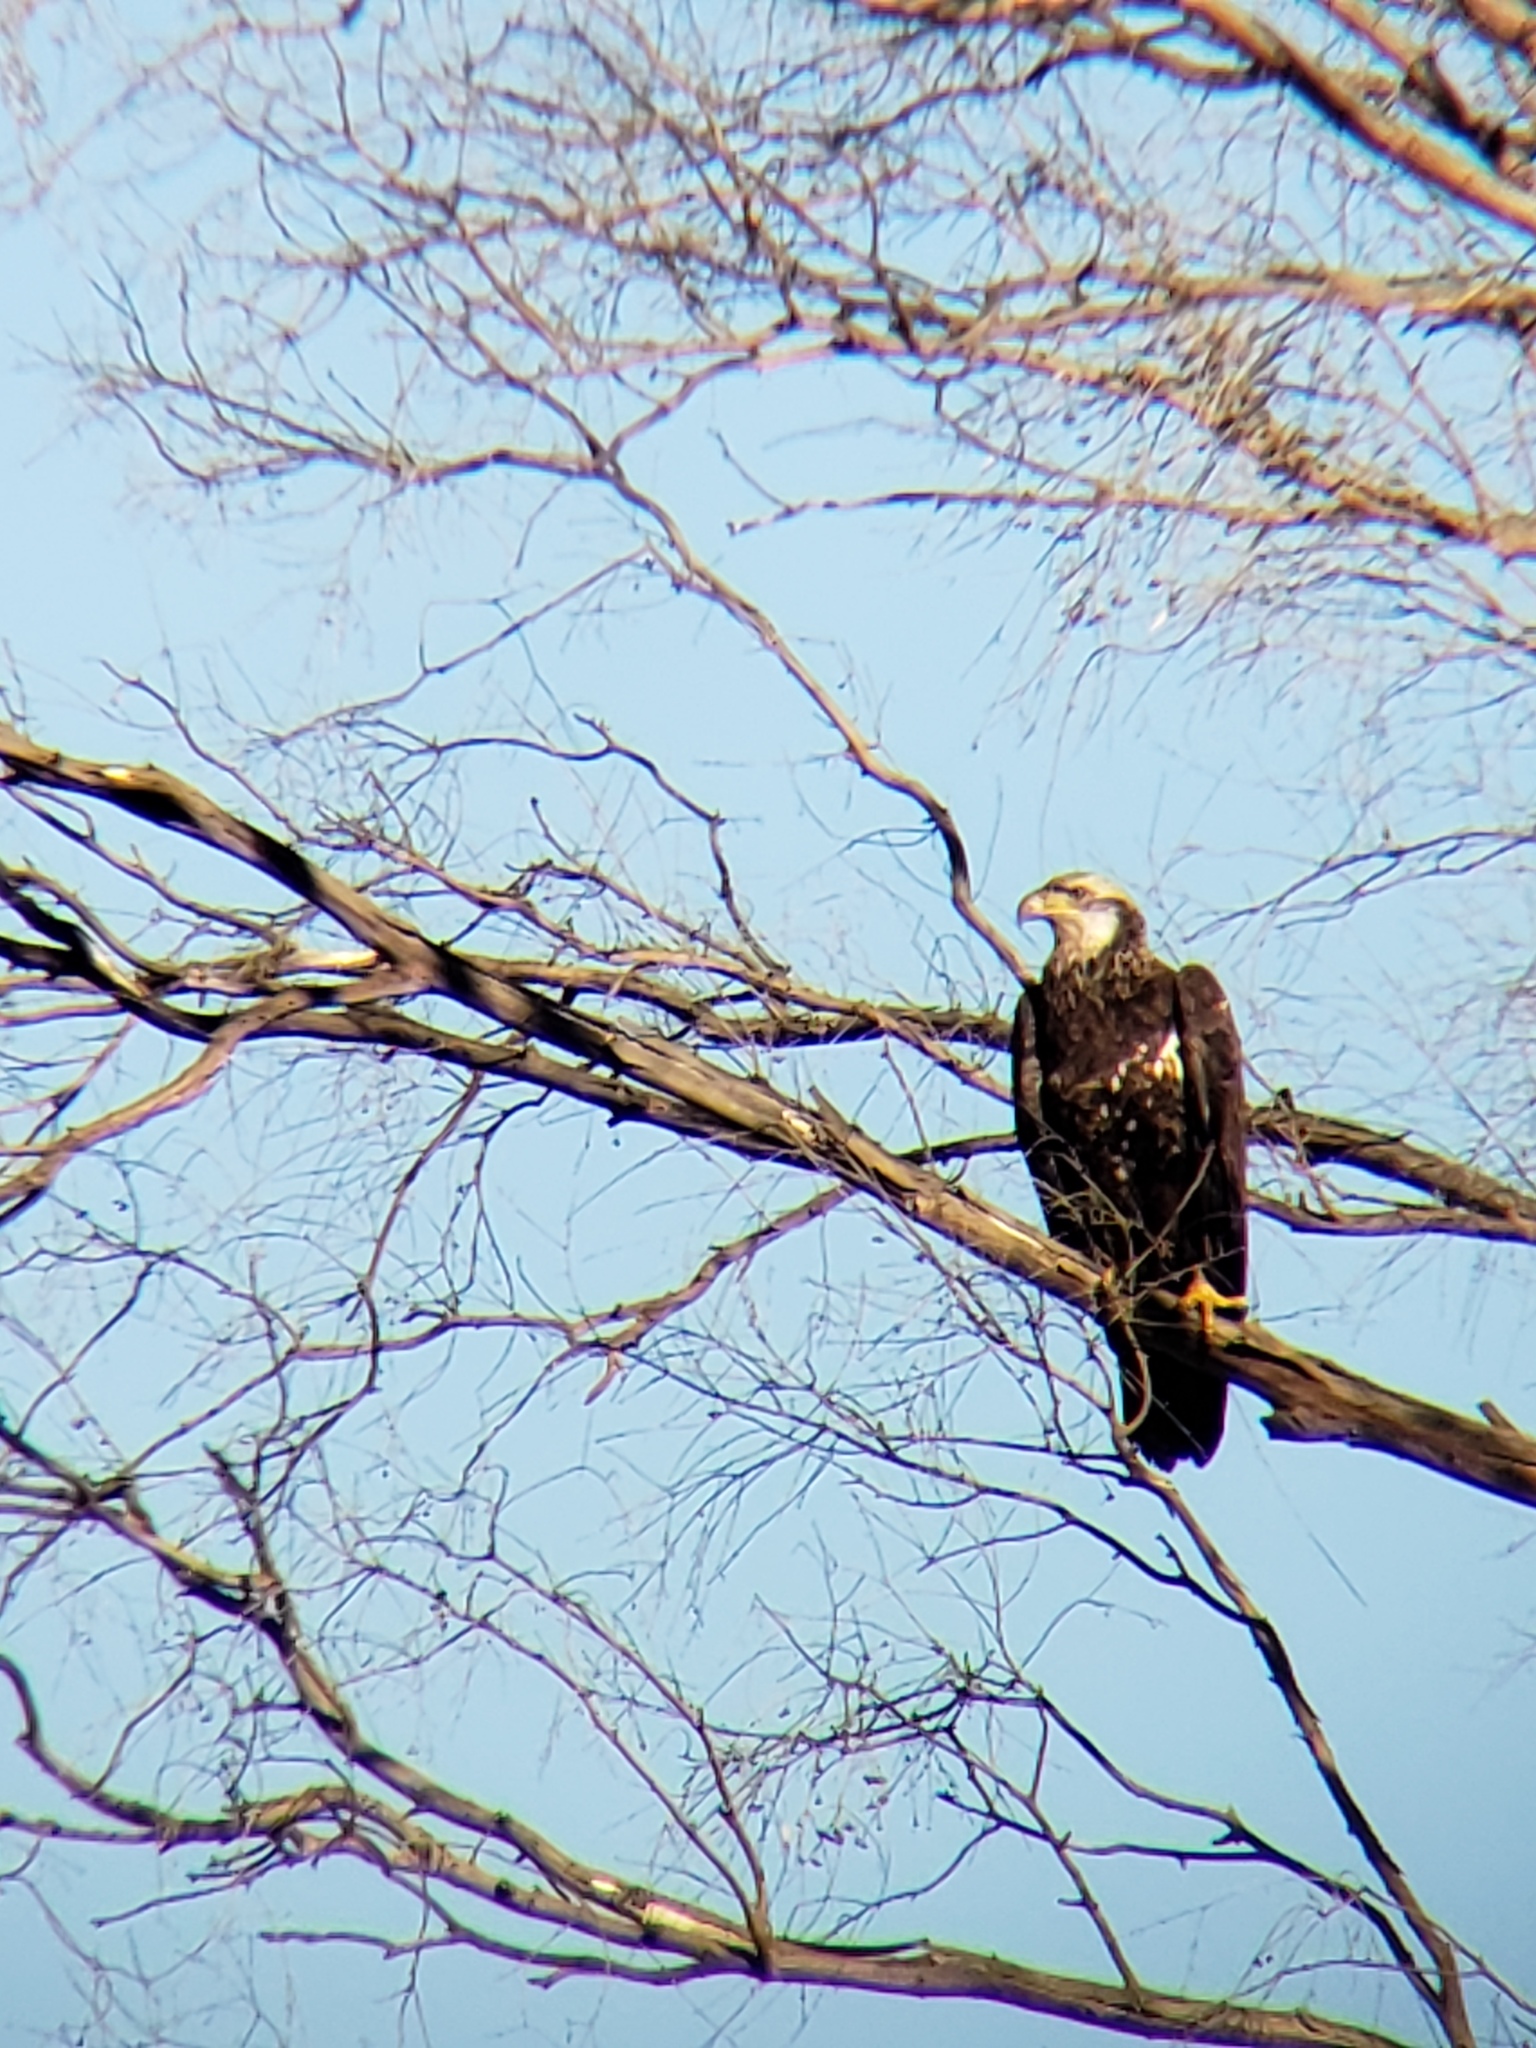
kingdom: Animalia
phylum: Chordata
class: Aves
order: Accipitriformes
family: Accipitridae
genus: Haliaeetus
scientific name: Haliaeetus leucocephalus
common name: Bald eagle
